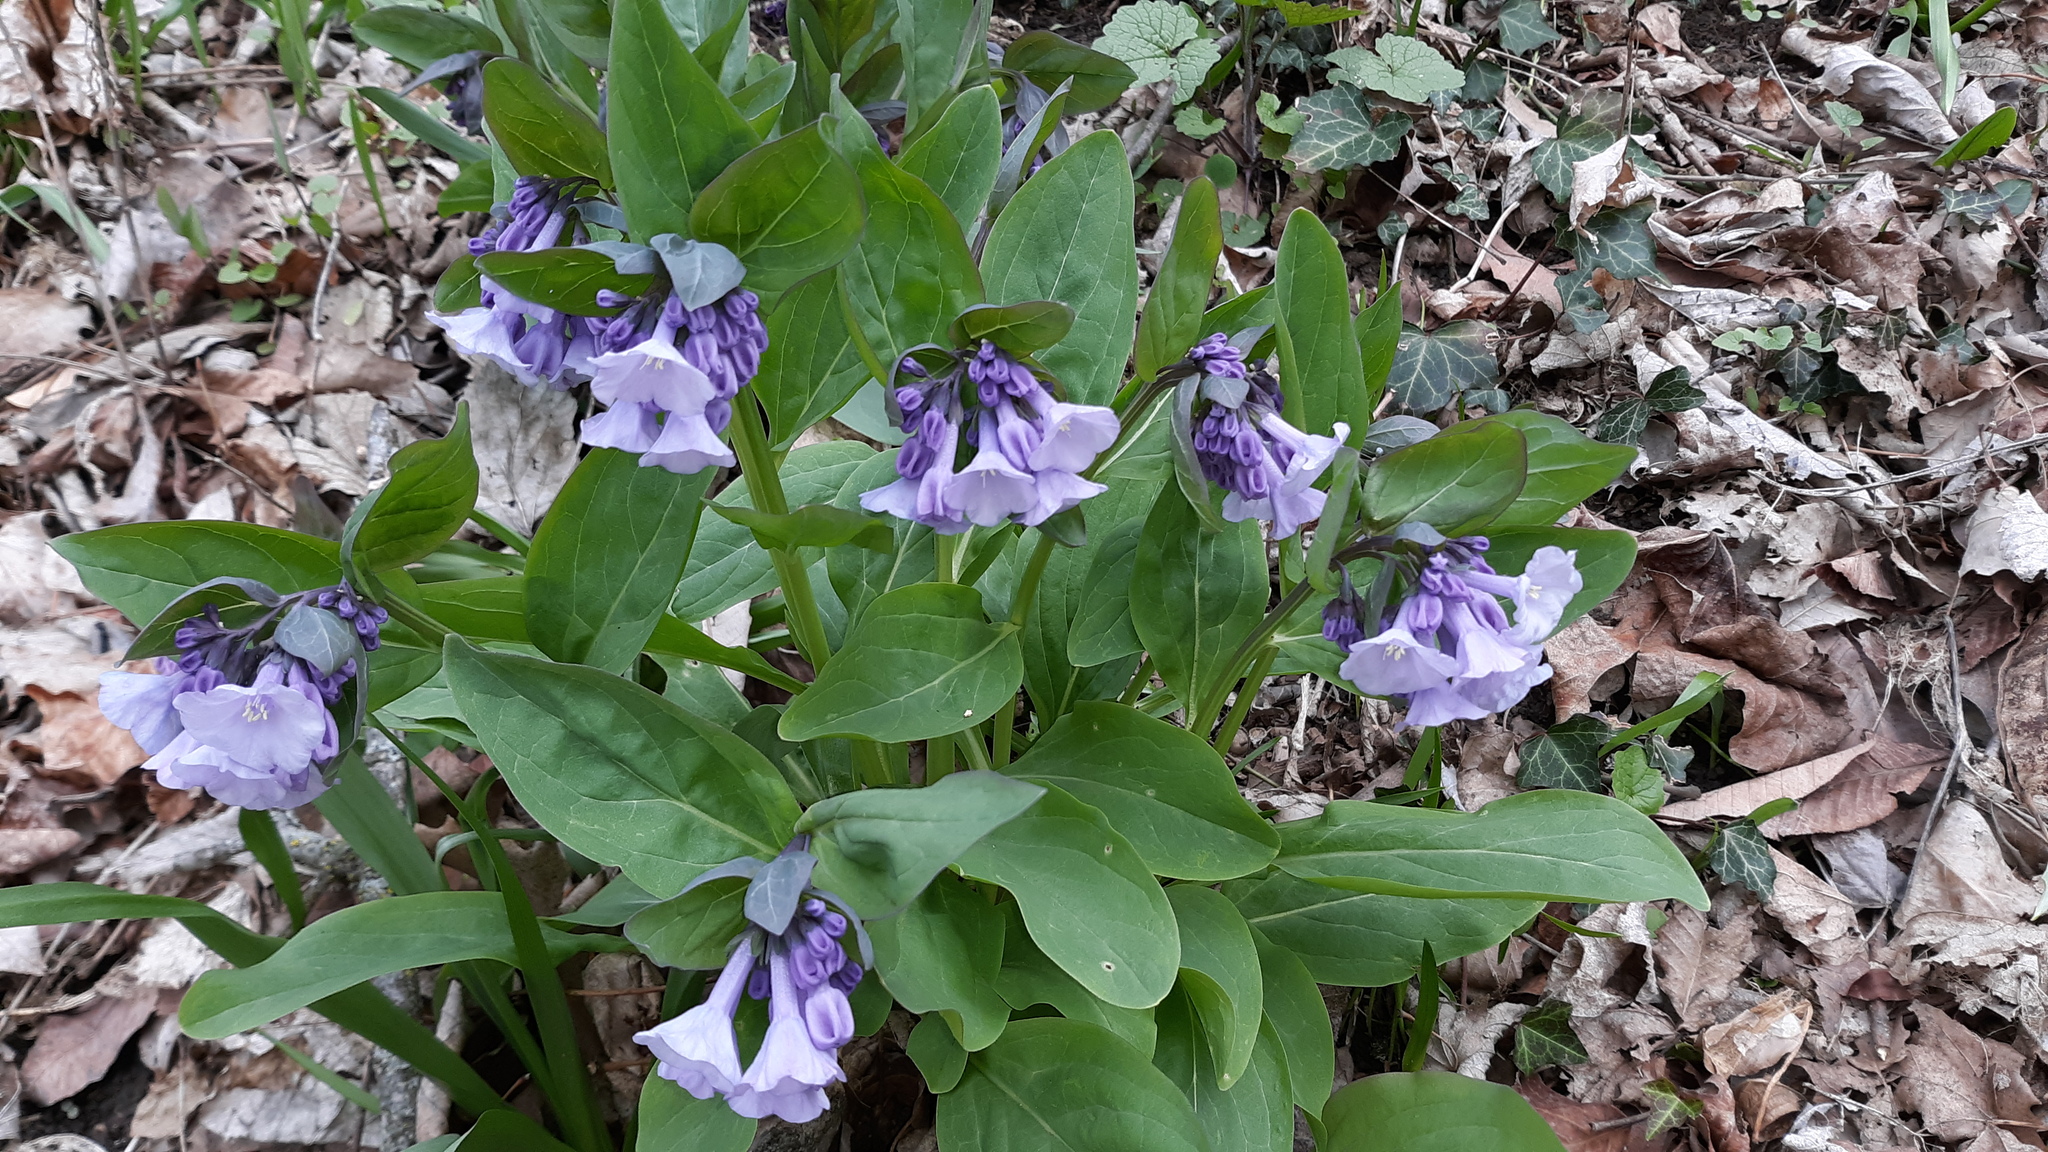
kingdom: Plantae
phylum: Tracheophyta
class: Magnoliopsida
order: Boraginales
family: Boraginaceae
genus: Mertensia
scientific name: Mertensia virginica
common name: Virginia bluebells
